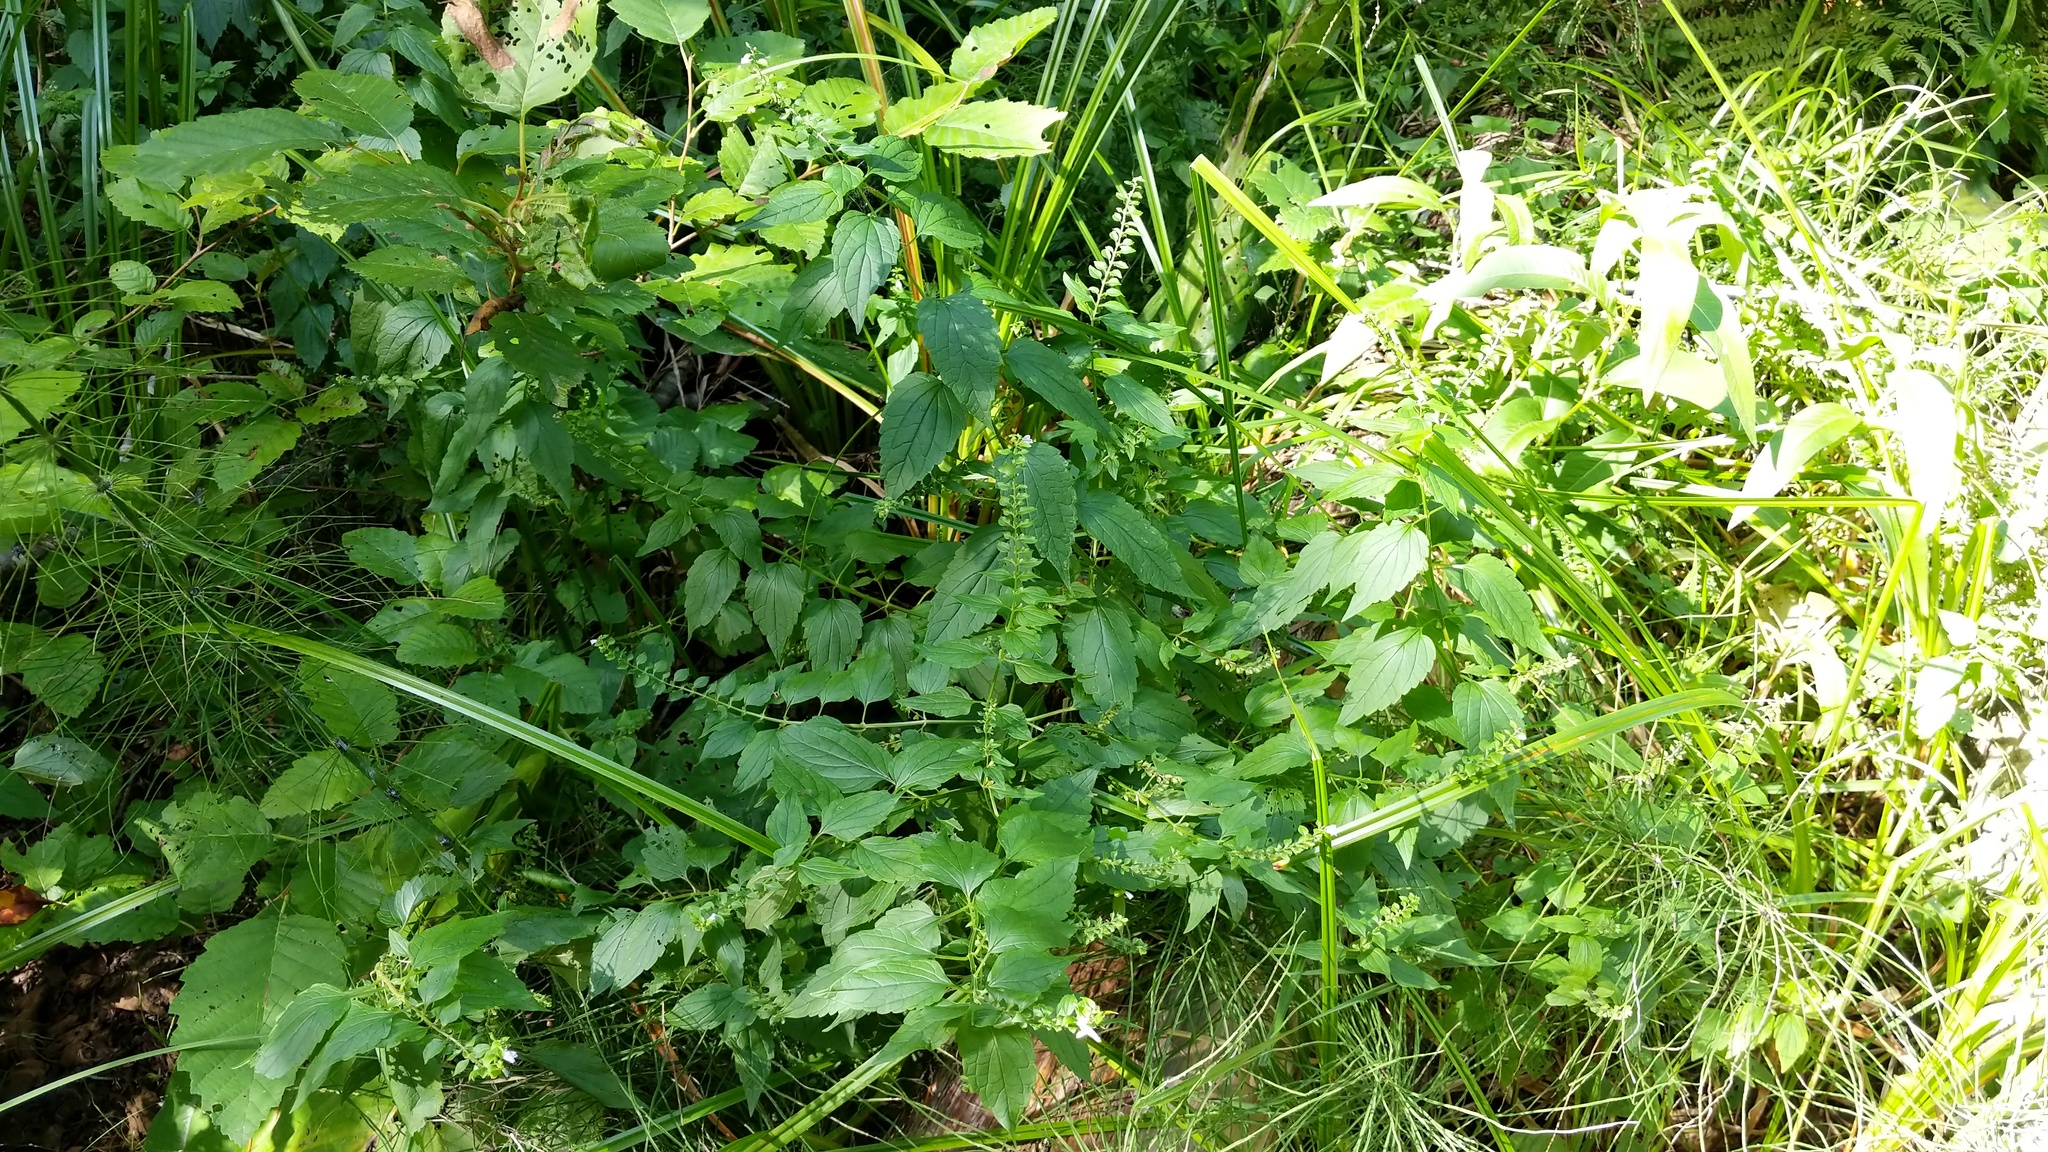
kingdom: Plantae
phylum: Tracheophyta
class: Magnoliopsida
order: Lamiales
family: Lamiaceae
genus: Scutellaria
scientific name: Scutellaria lateriflora
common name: Blue skullcap
